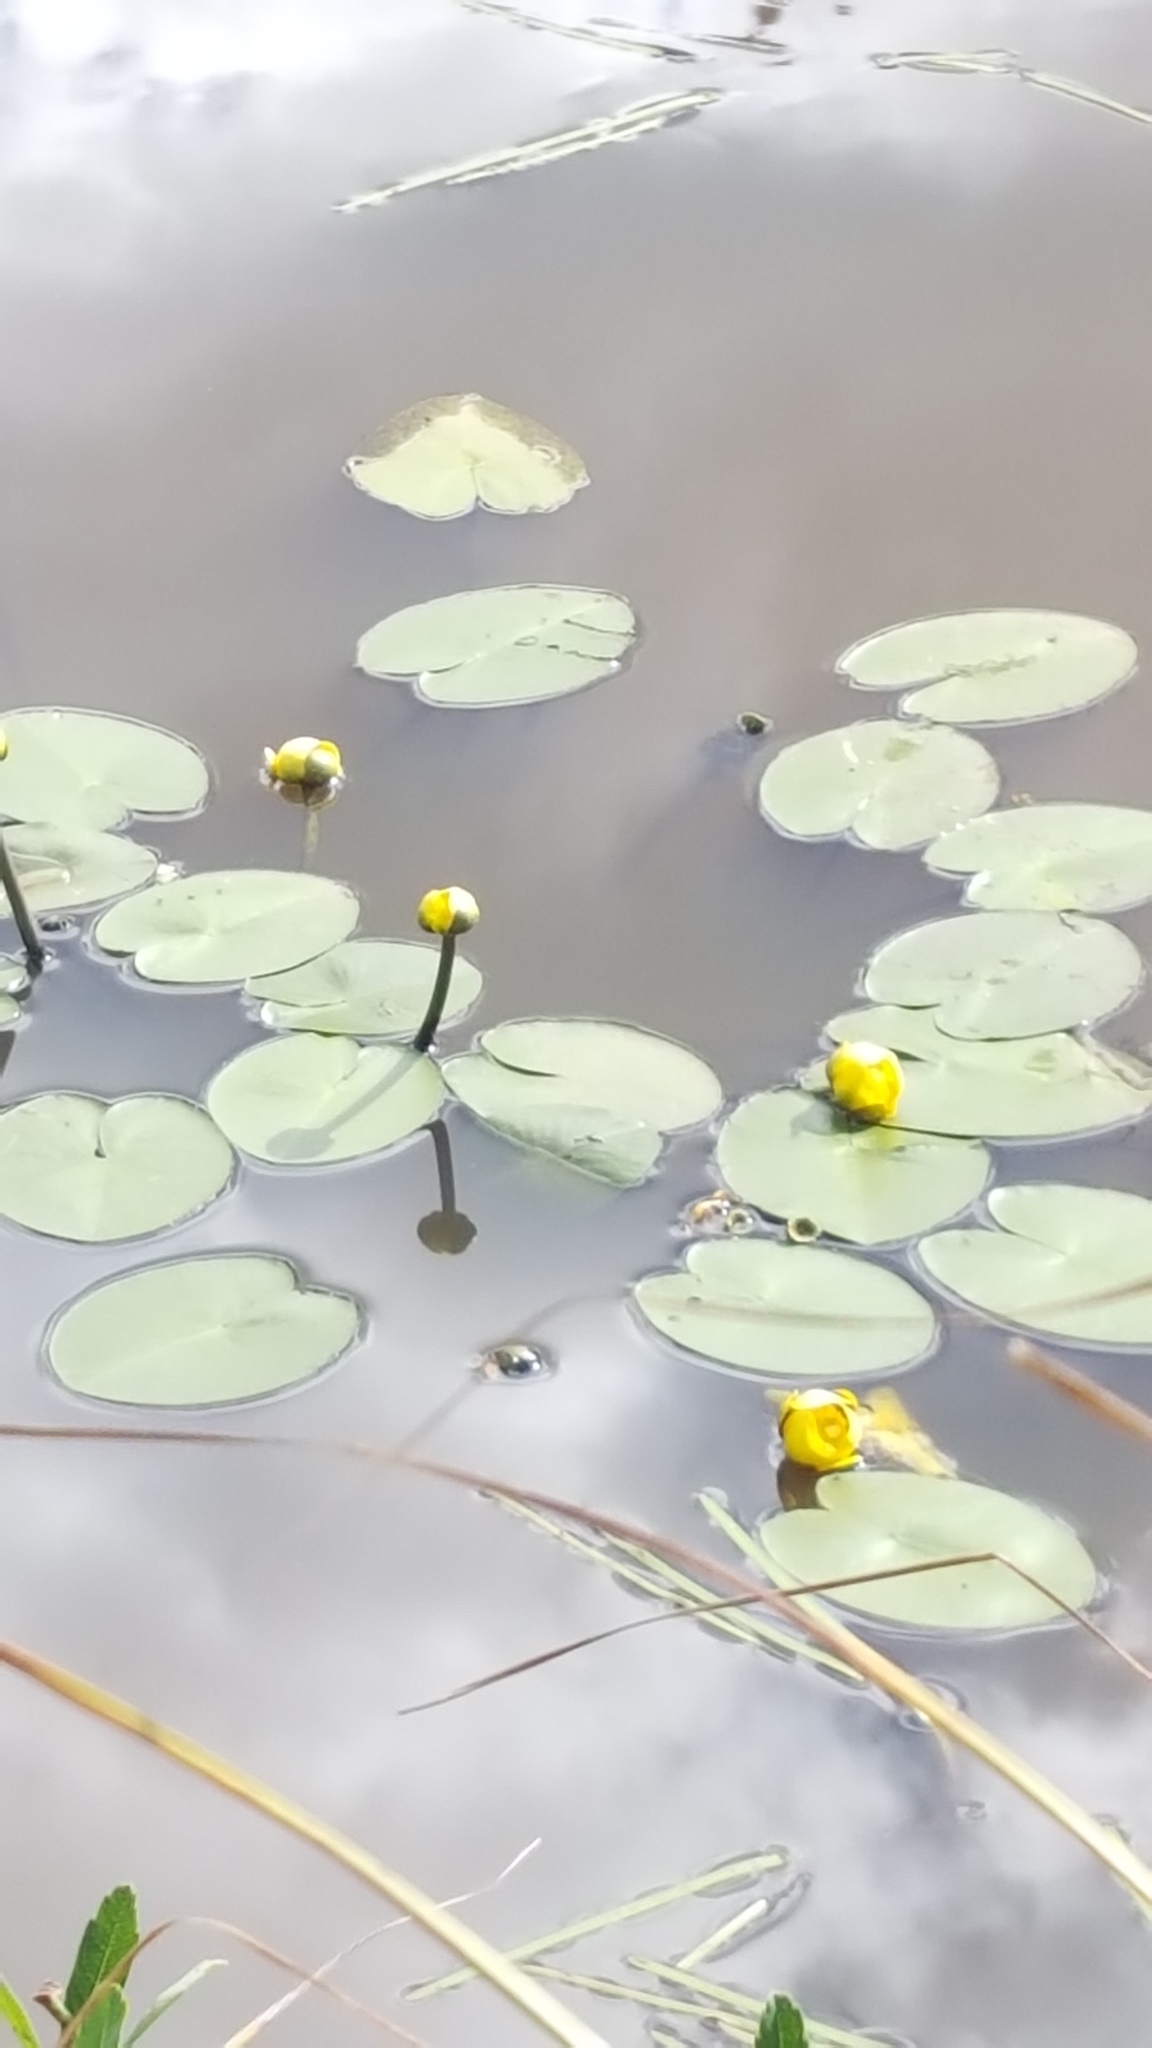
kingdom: Plantae
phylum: Tracheophyta
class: Magnoliopsida
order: Nymphaeales
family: Nymphaeaceae
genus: Nuphar
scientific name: Nuphar variegata
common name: Beaver-root
